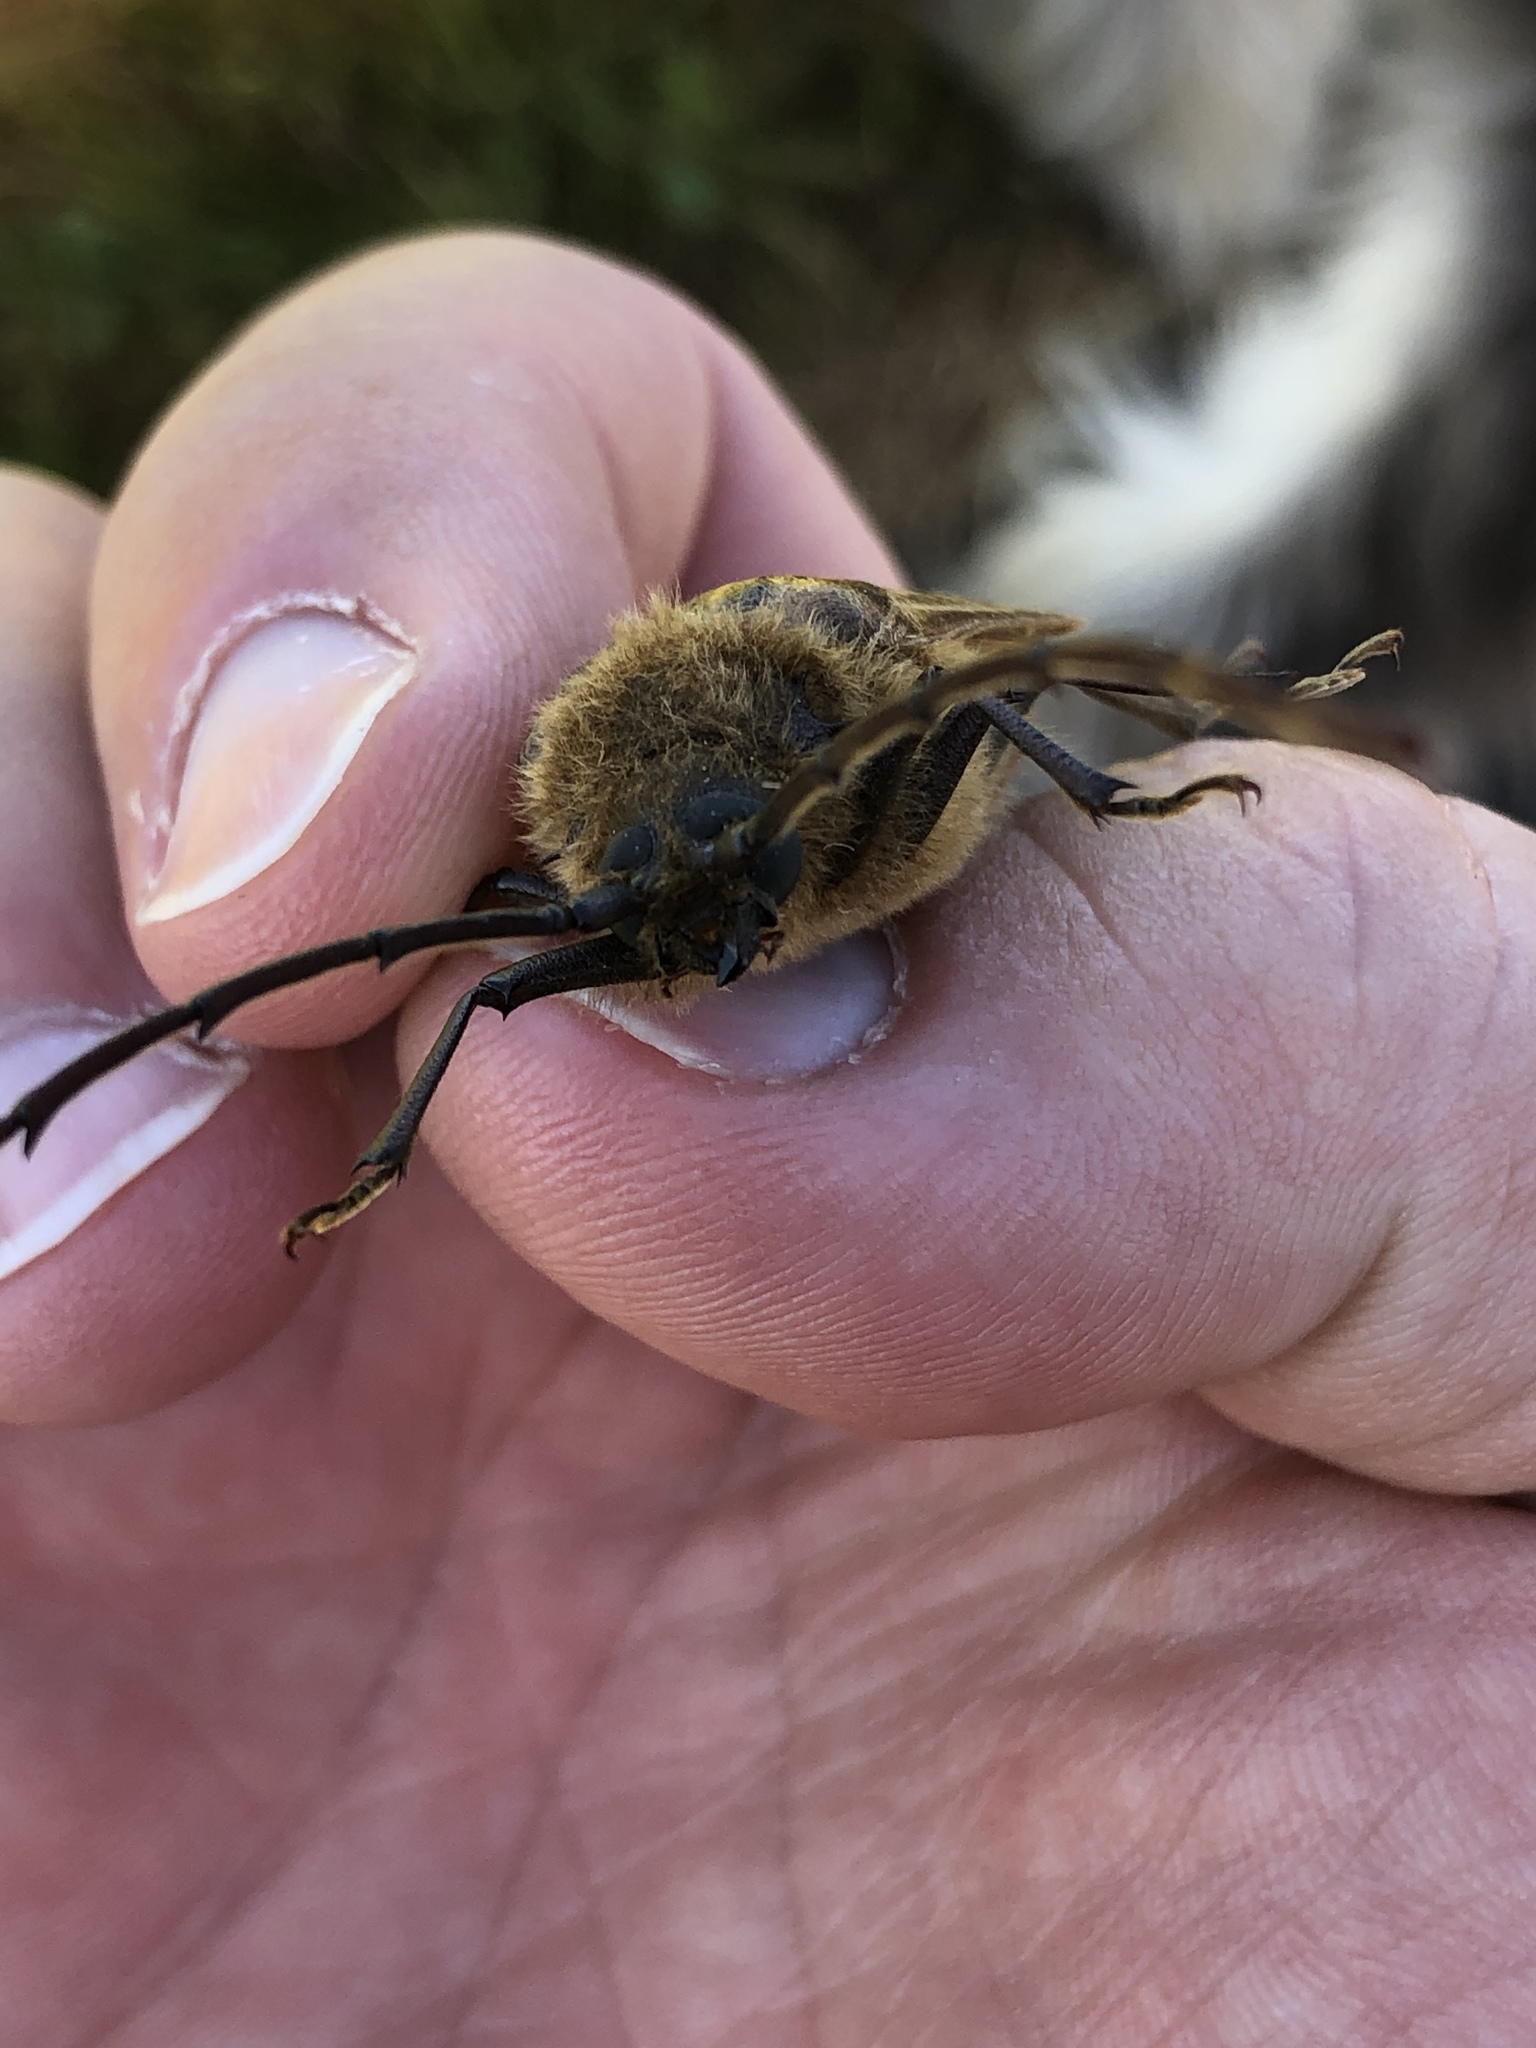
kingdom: Animalia
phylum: Arthropoda
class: Insecta
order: Coleoptera
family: Cerambycidae
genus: Prionoplus
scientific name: Prionoplus reticularis
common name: Huhu beetle
